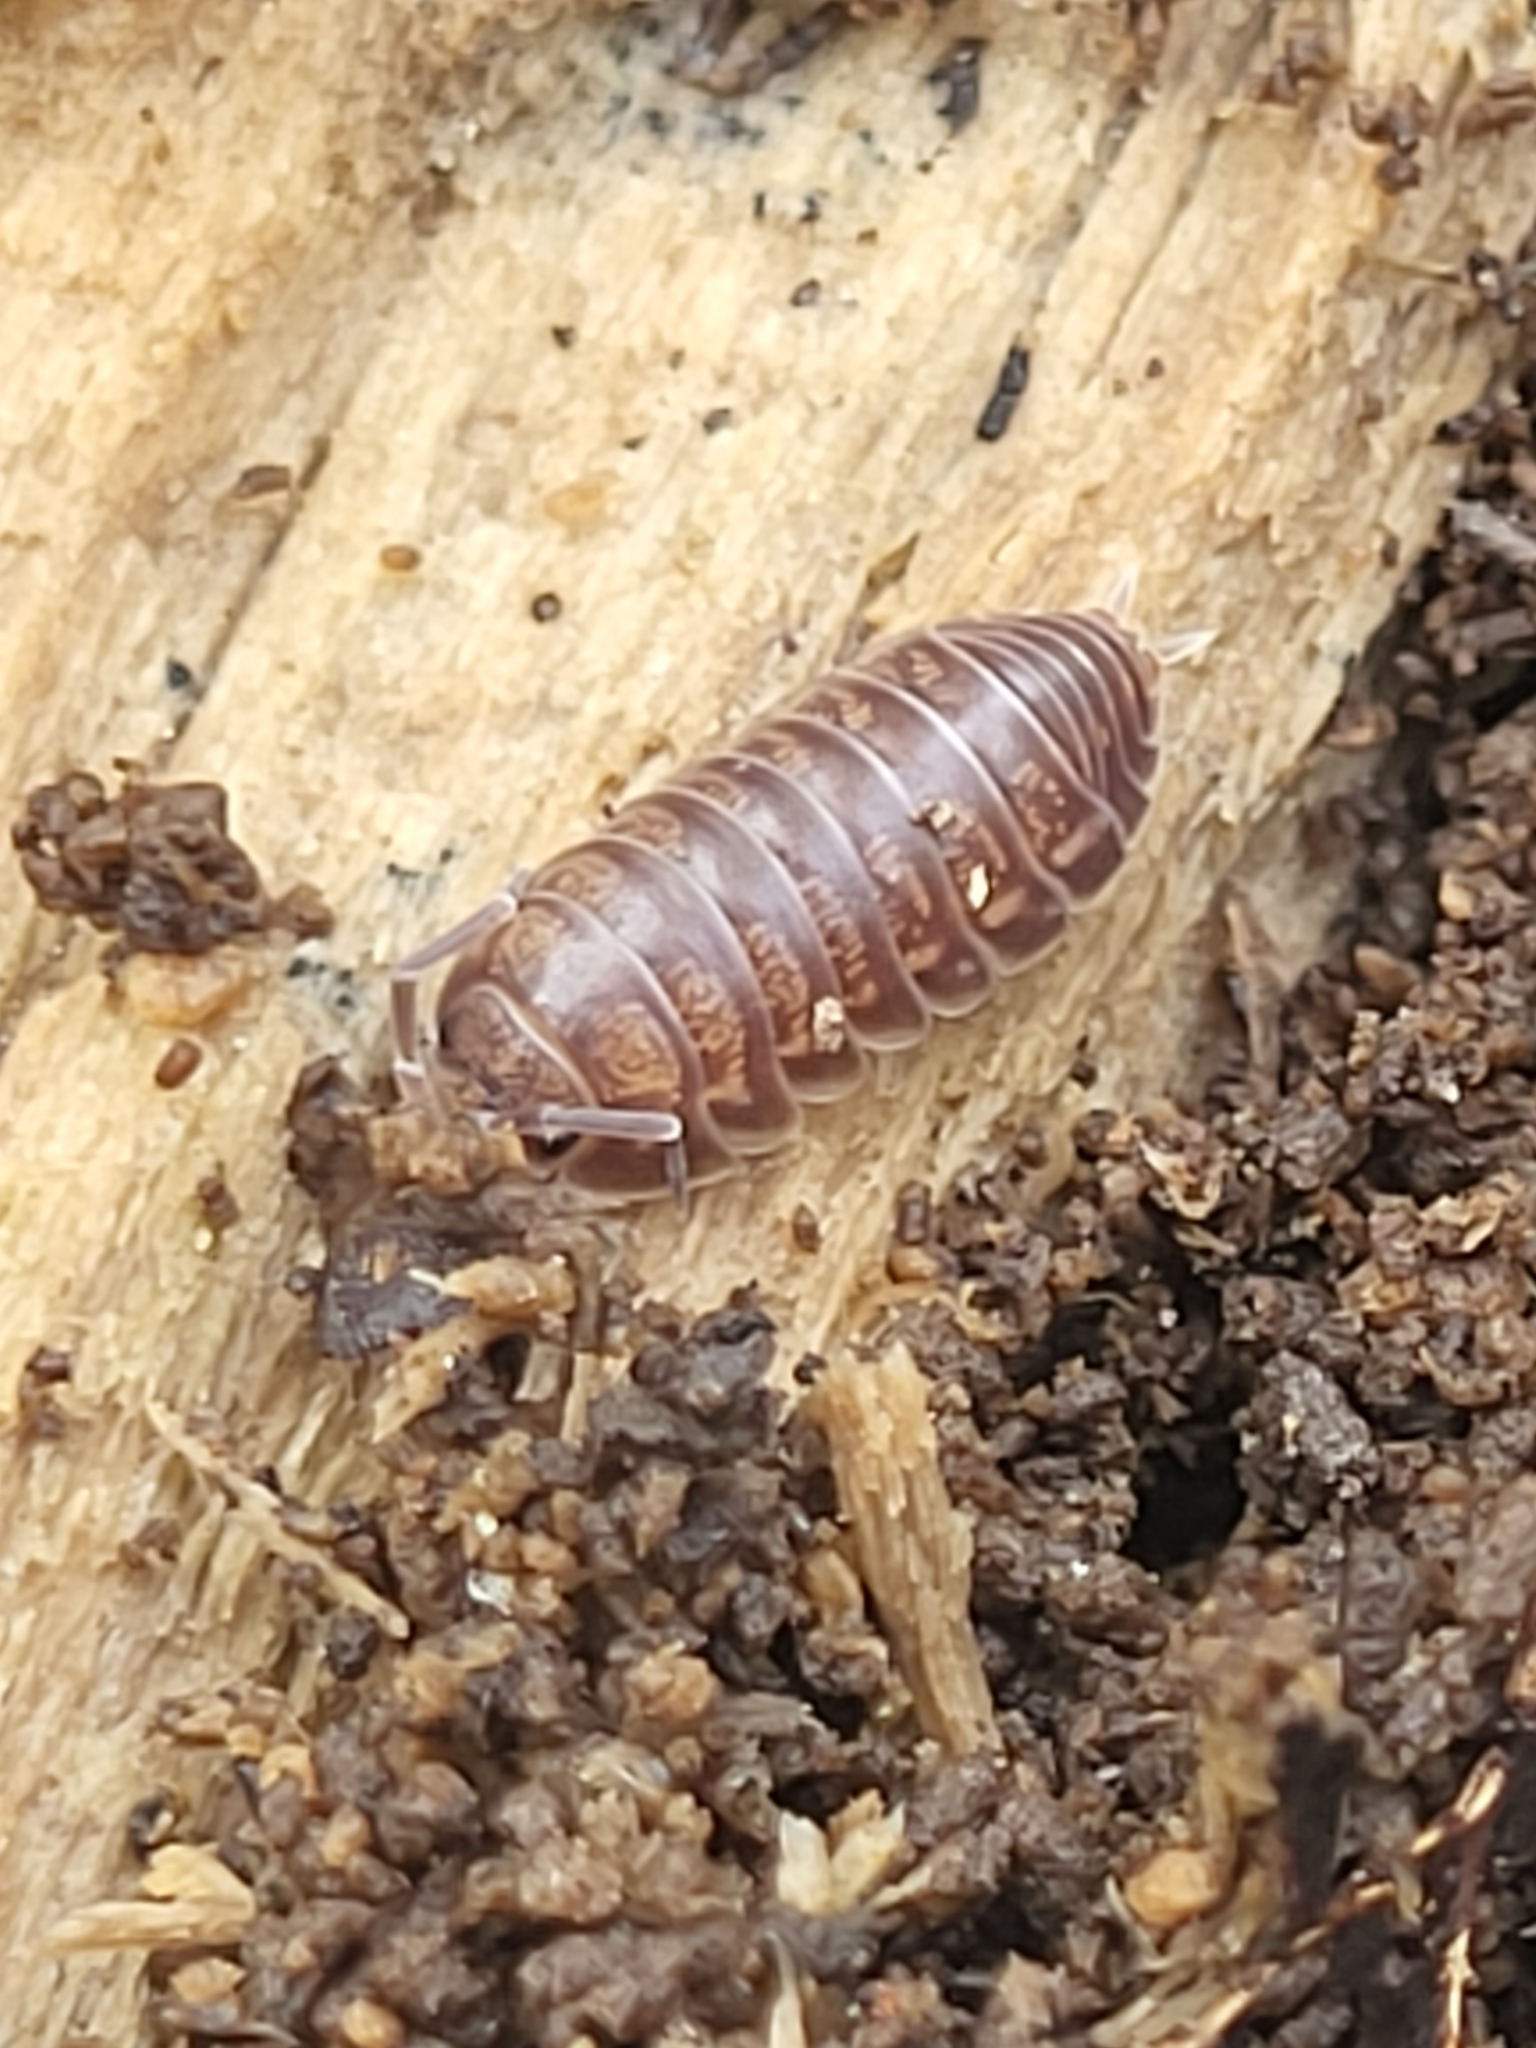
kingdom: Animalia
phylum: Arthropoda
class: Malacostraca
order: Isopoda
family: Cylisticidae
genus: Cylisticus
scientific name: Cylisticus convexus
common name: Curly woodlouse
